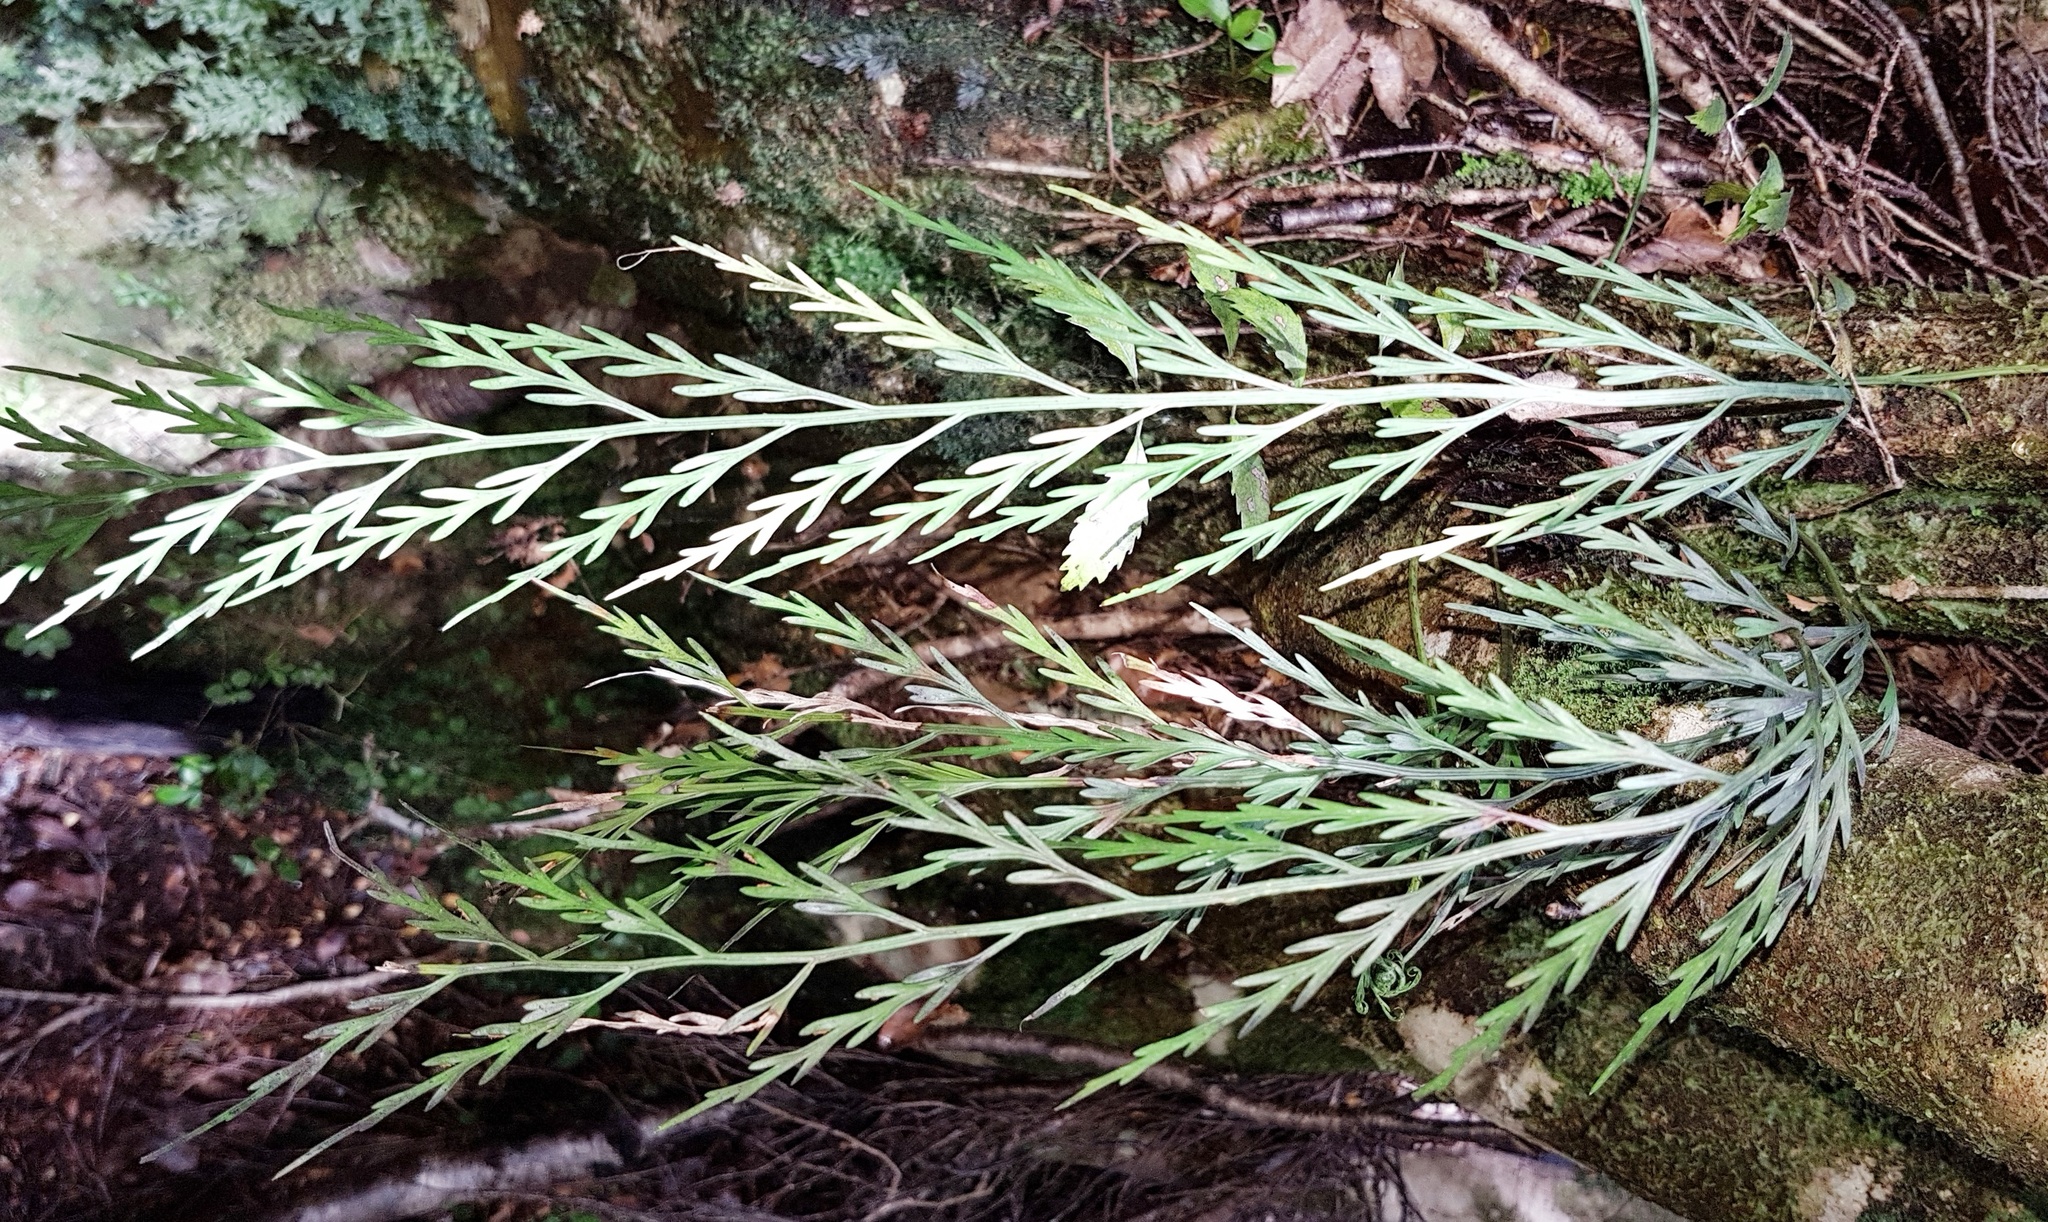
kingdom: Plantae
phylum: Tracheophyta
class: Polypodiopsida
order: Polypodiales
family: Aspleniaceae
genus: Asplenium
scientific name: Asplenium flaccidum
